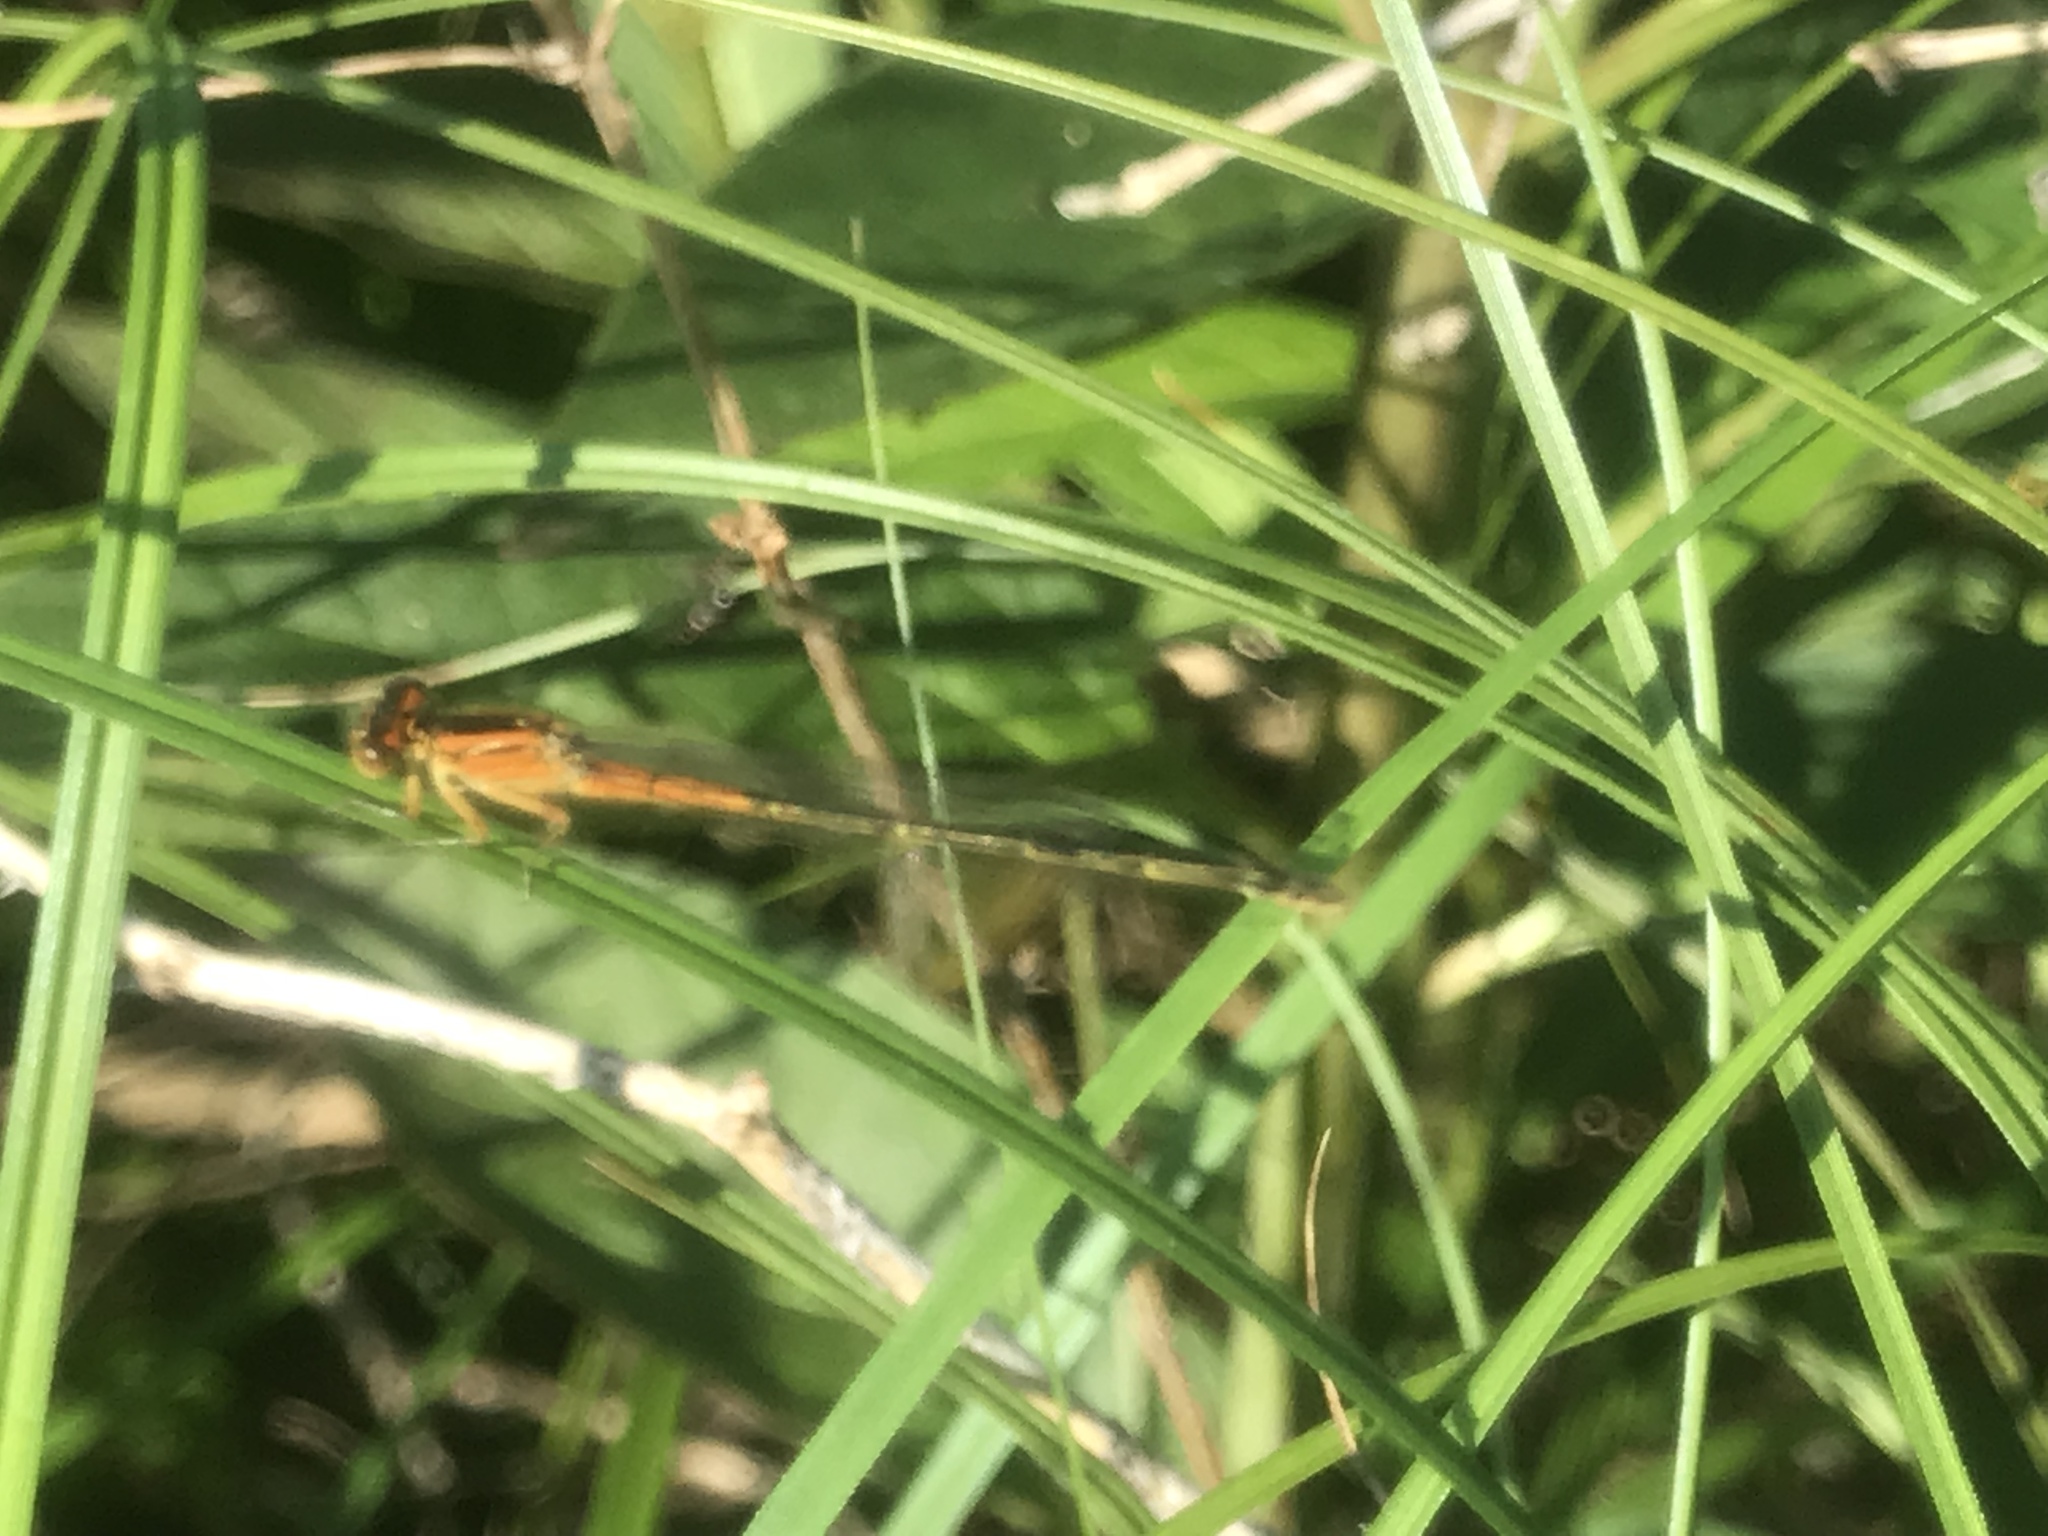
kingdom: Animalia
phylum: Arthropoda
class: Insecta
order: Odonata
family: Coenagrionidae
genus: Ischnura
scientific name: Ischnura verticalis
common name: Eastern forktail
